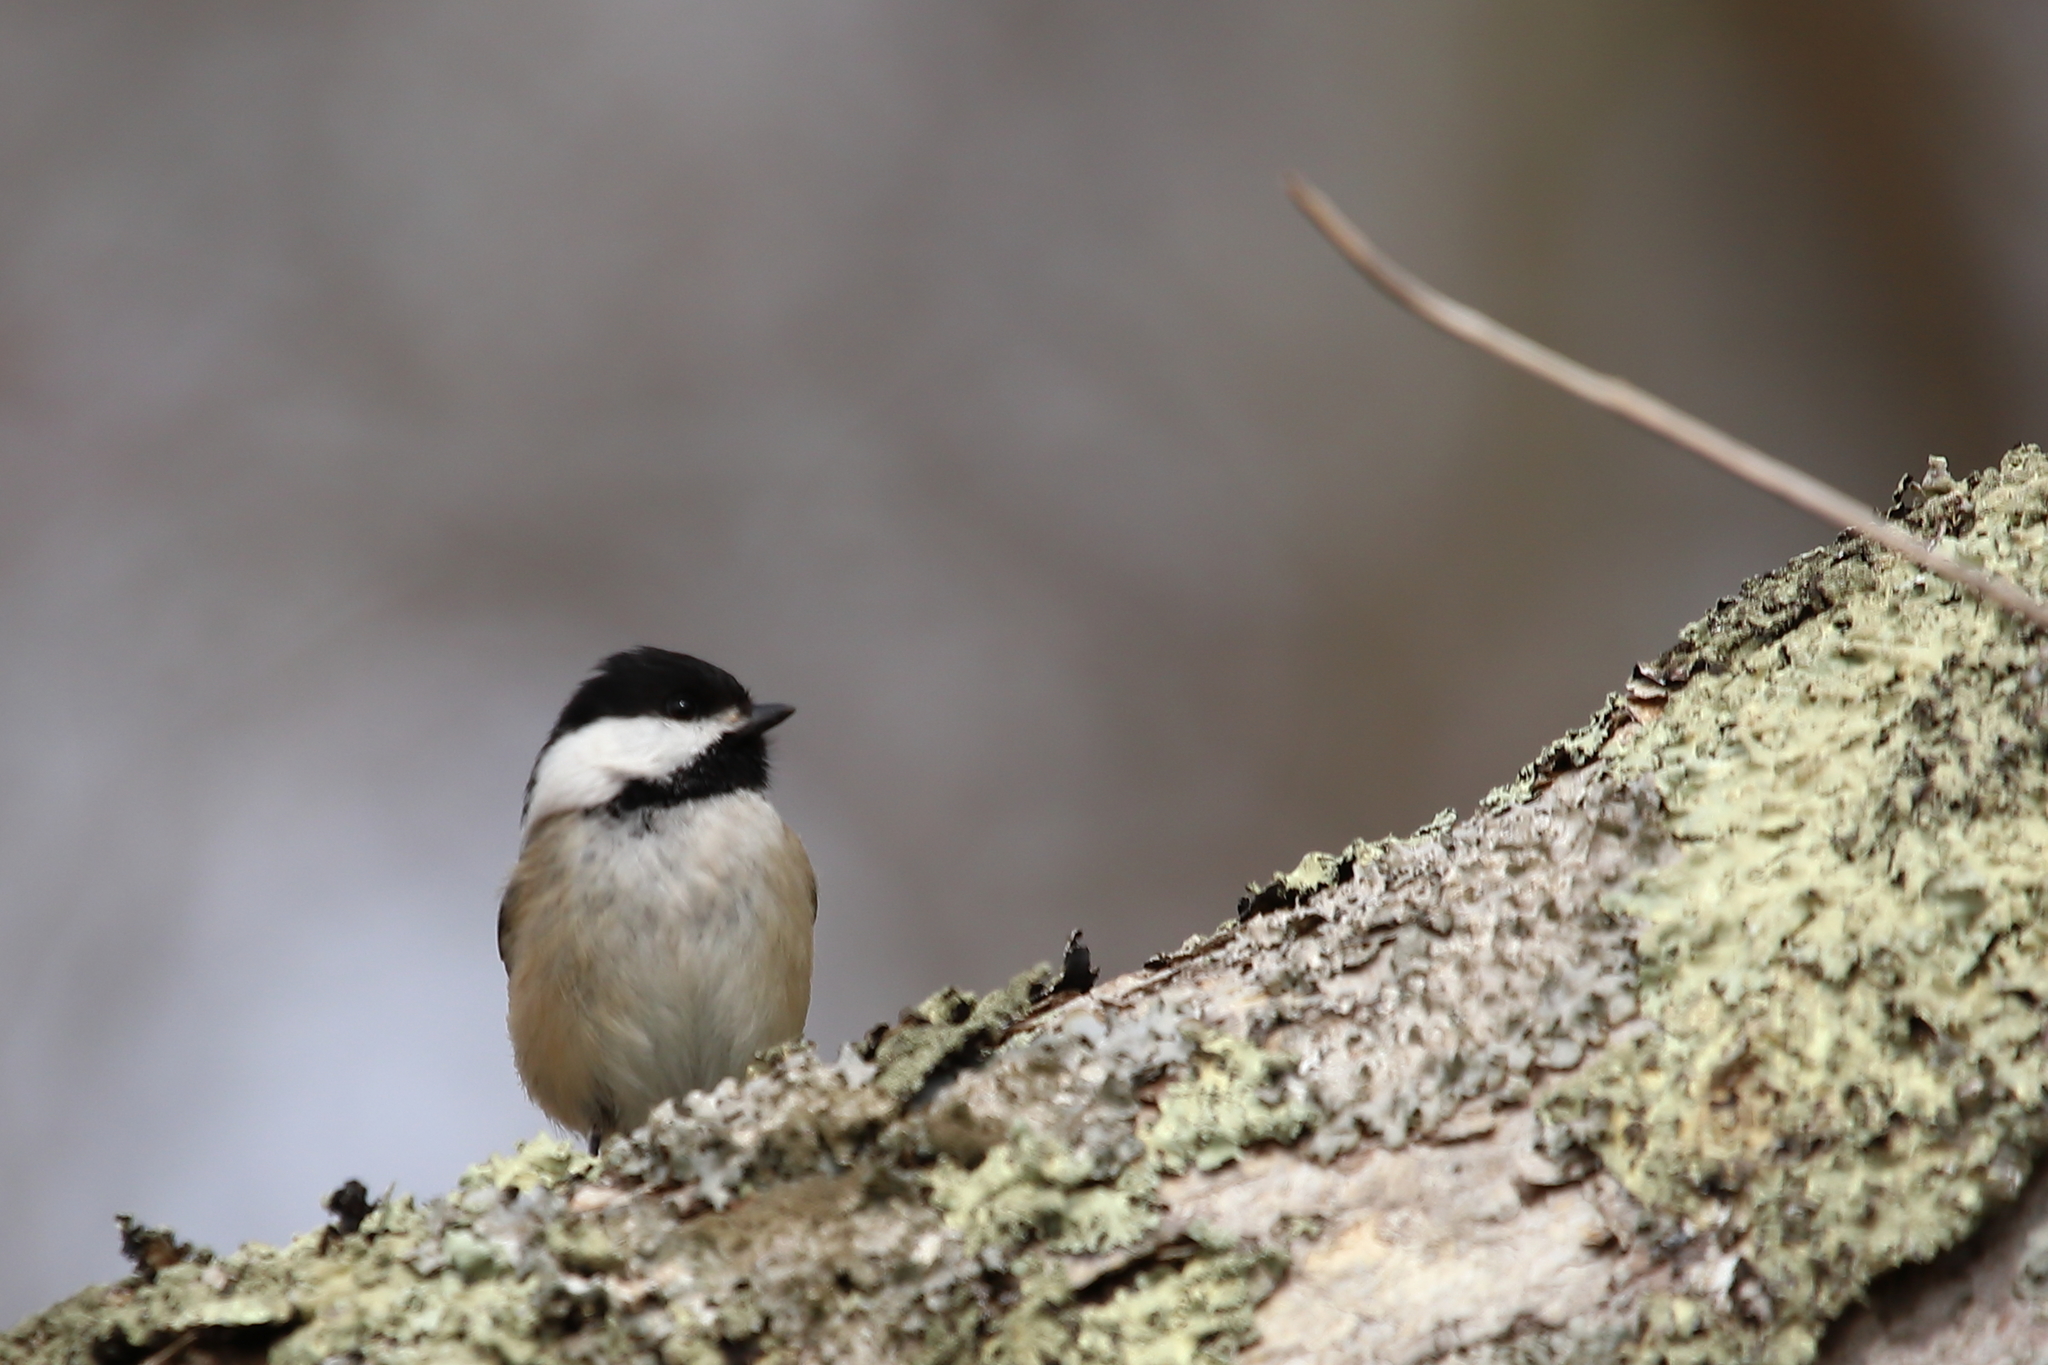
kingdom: Animalia
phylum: Chordata
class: Aves
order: Passeriformes
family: Paridae
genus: Poecile
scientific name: Poecile atricapillus
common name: Black-capped chickadee
